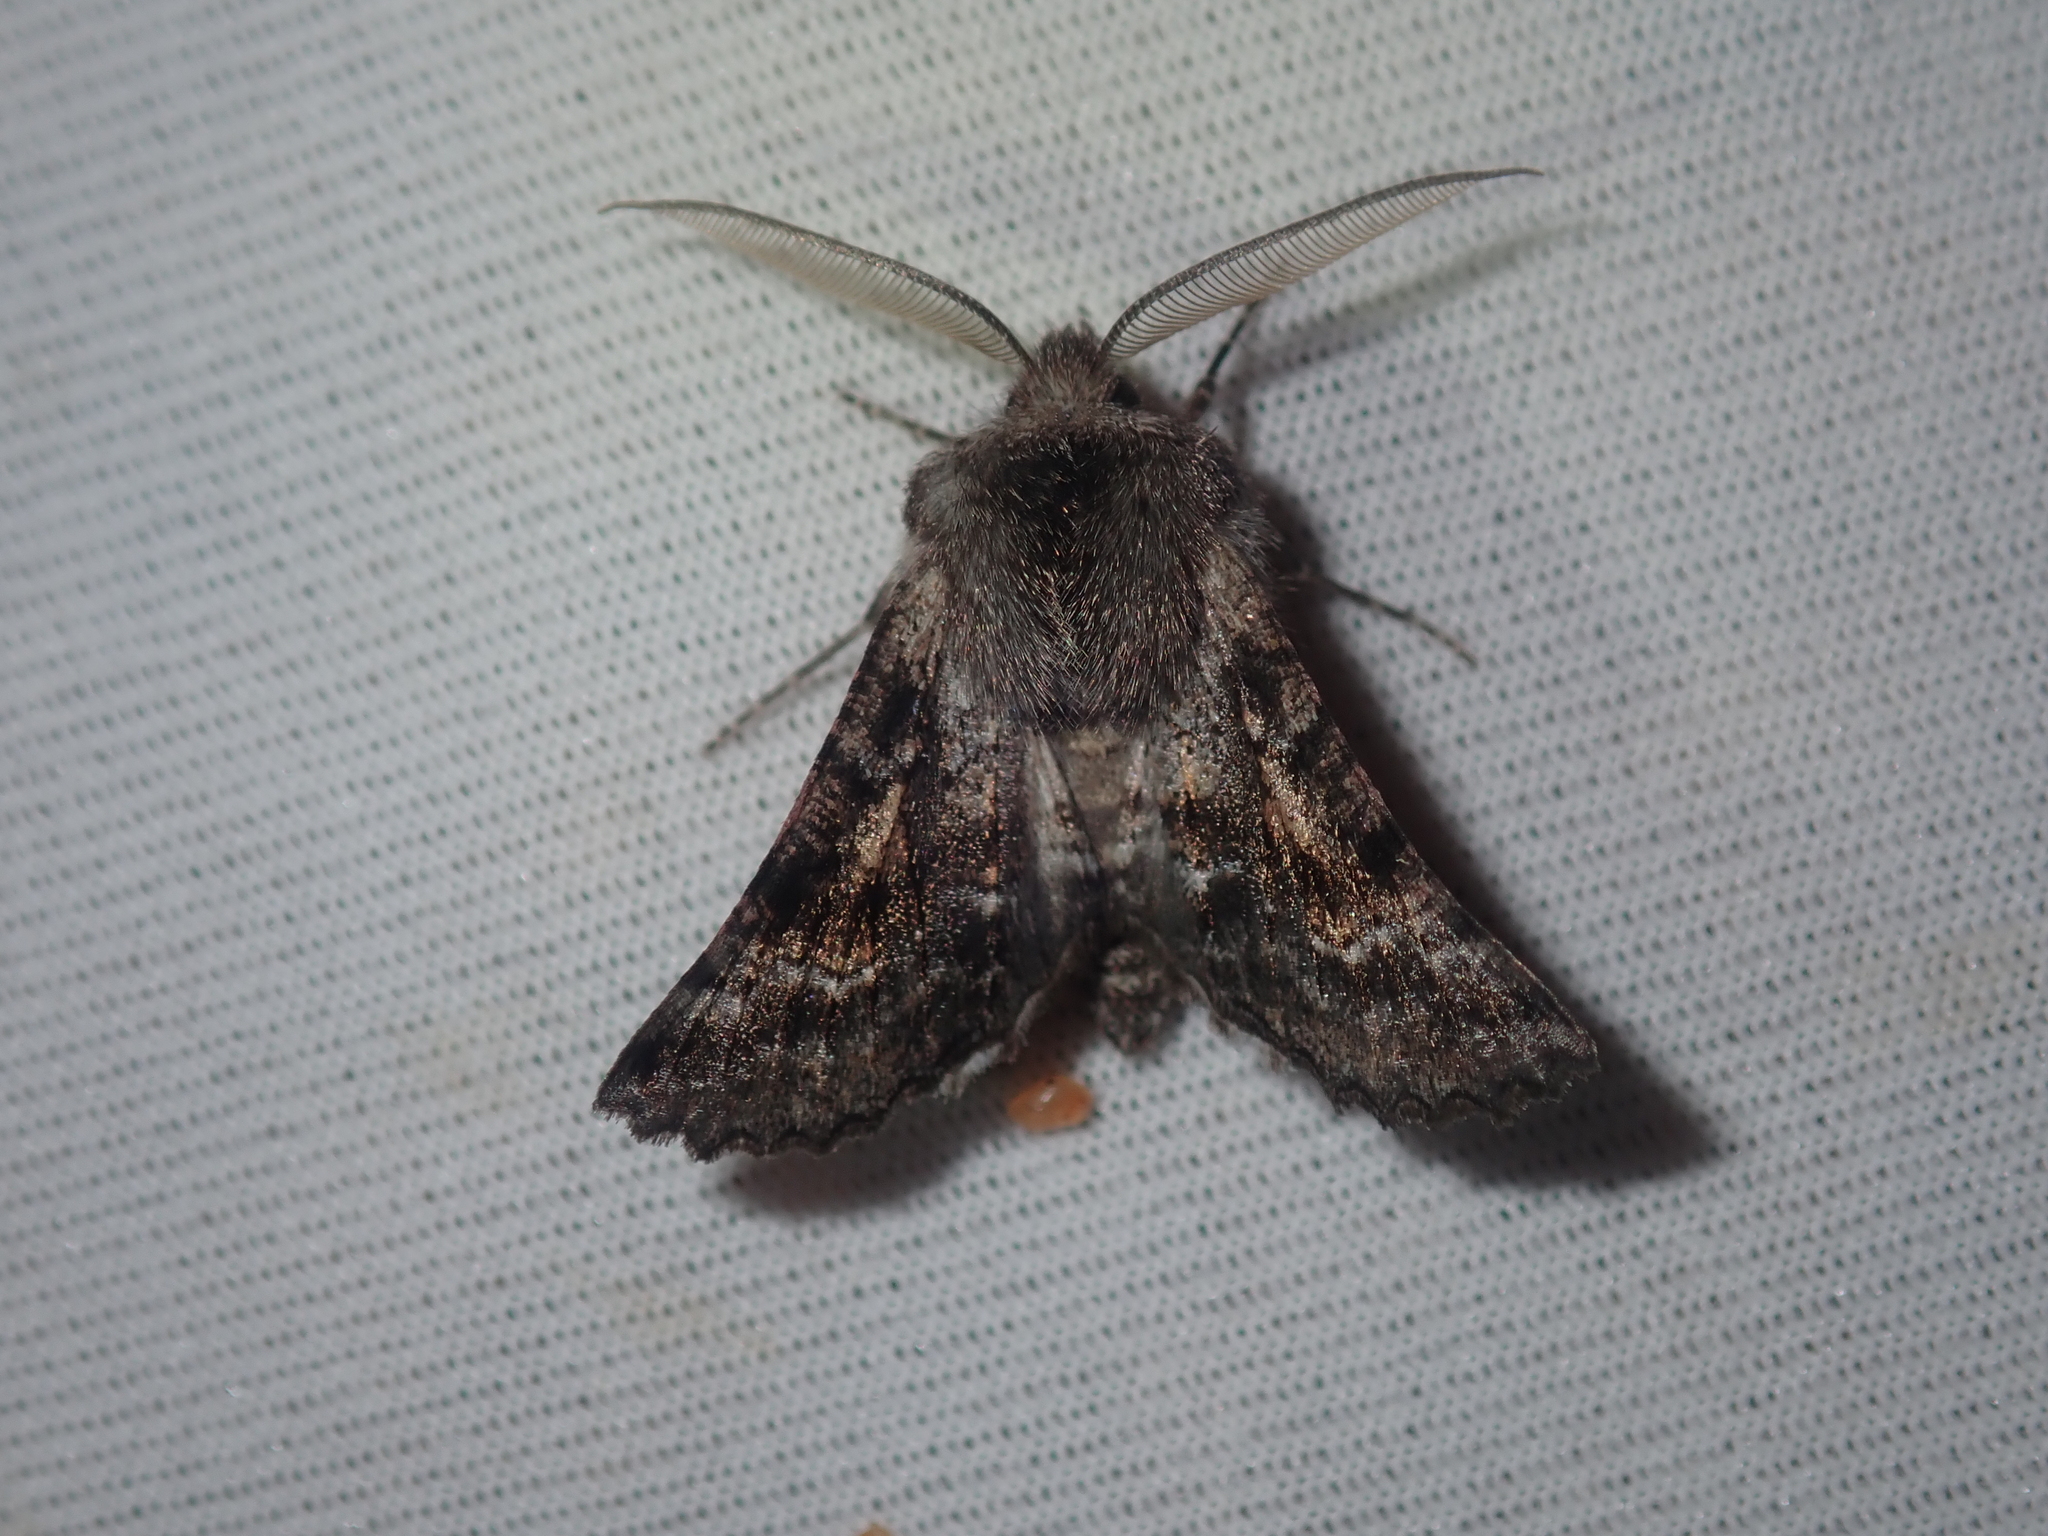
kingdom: Animalia
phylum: Arthropoda
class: Insecta
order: Lepidoptera
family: Geometridae
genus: Dinophalus
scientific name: Dinophalus ampycteria
